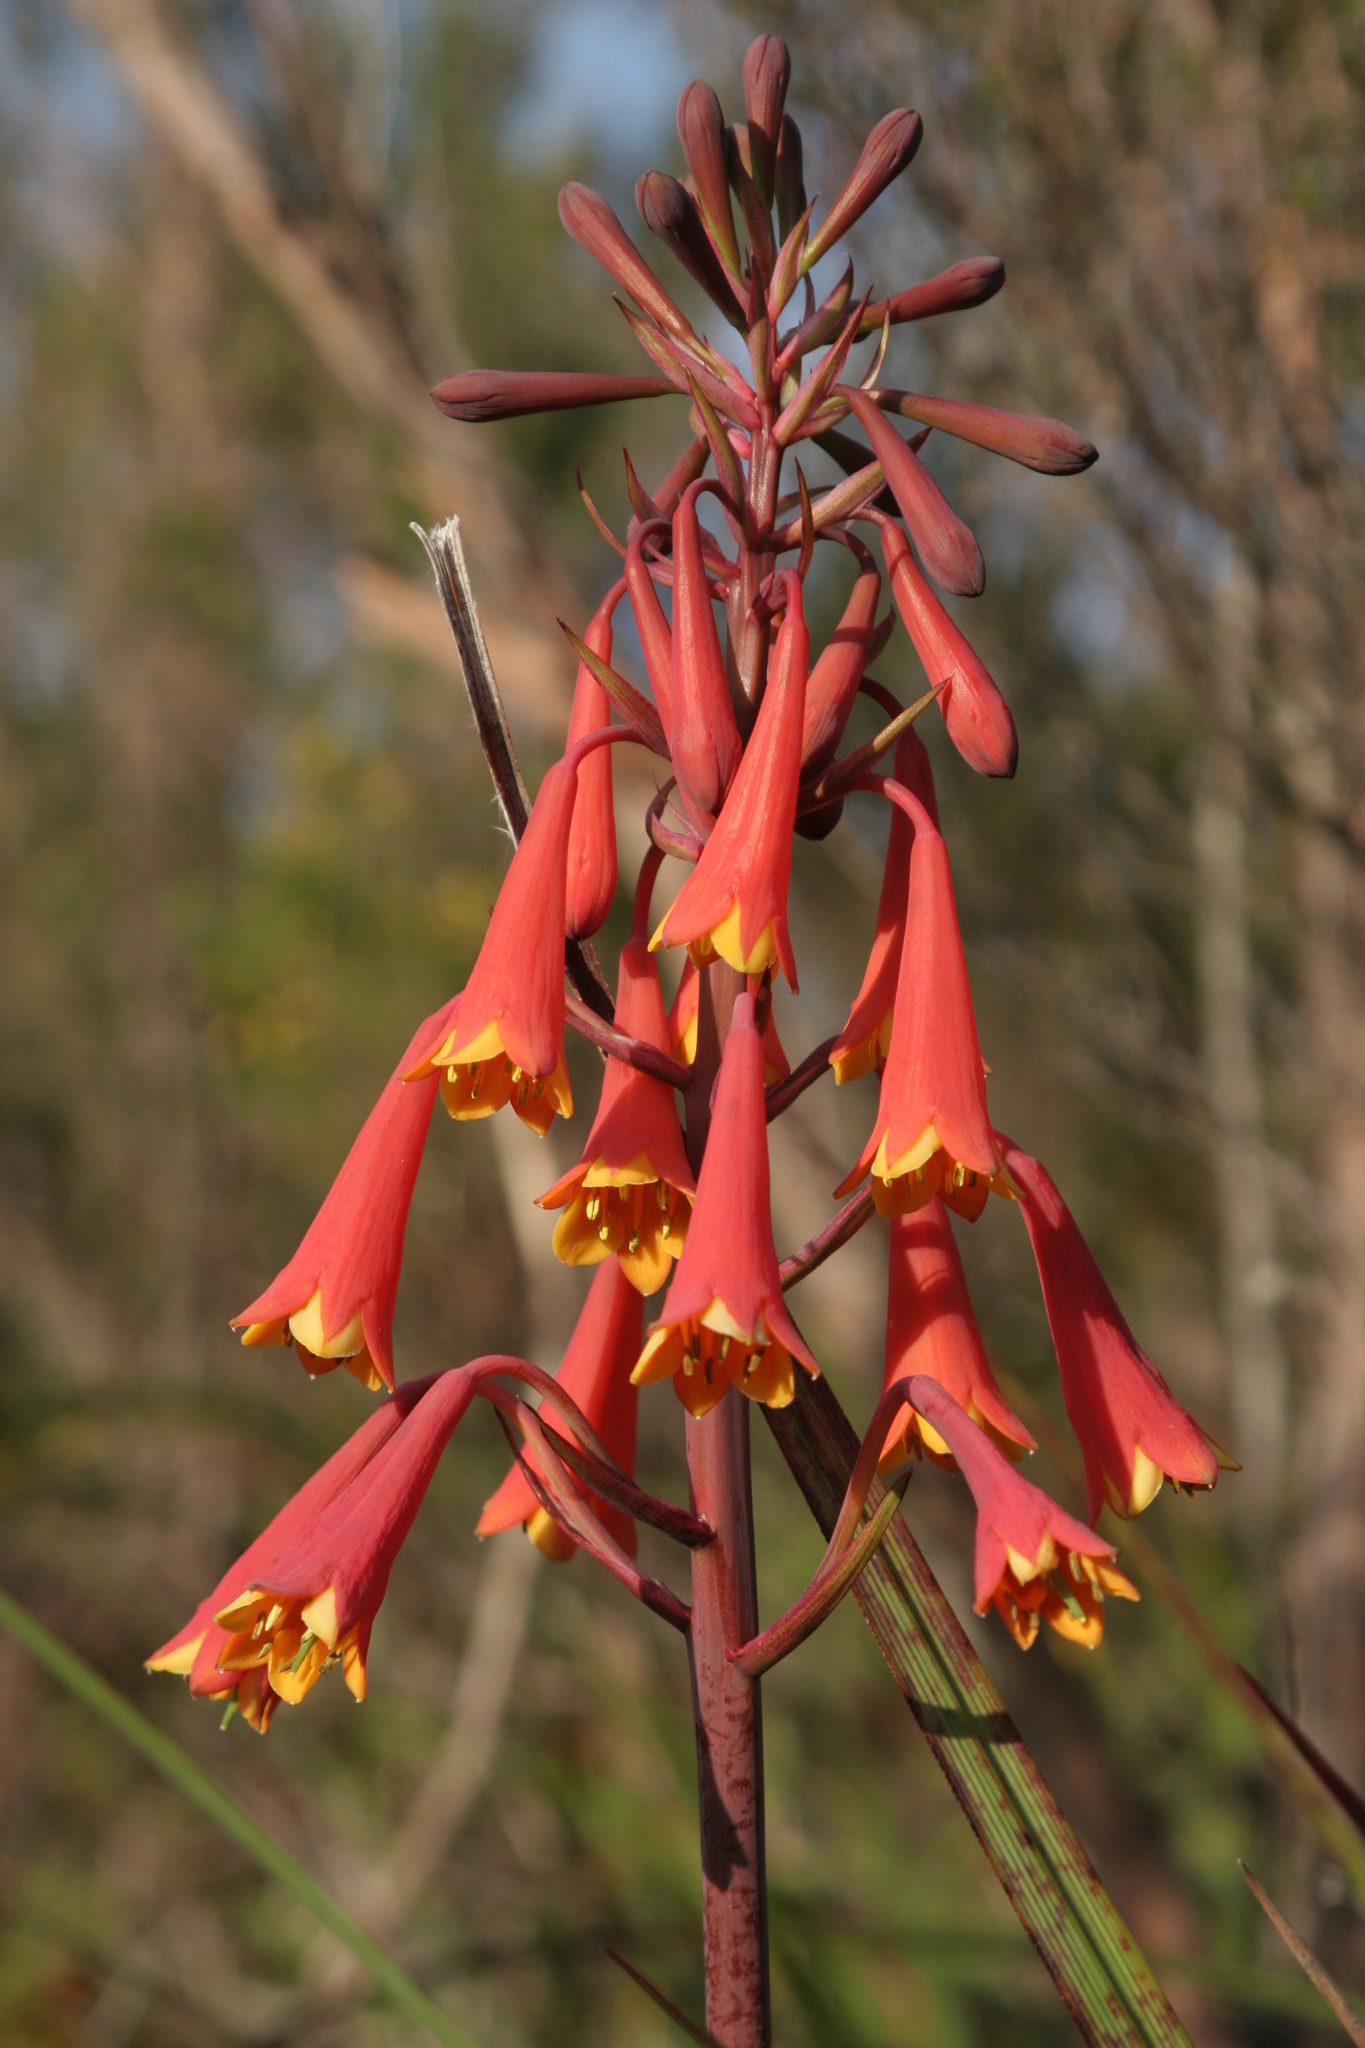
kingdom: Plantae
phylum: Tracheophyta
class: Liliopsida
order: Asparagales
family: Blandfordiaceae
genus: Blandfordia
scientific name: Blandfordia punicea
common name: Tasmanian christmas-bell
